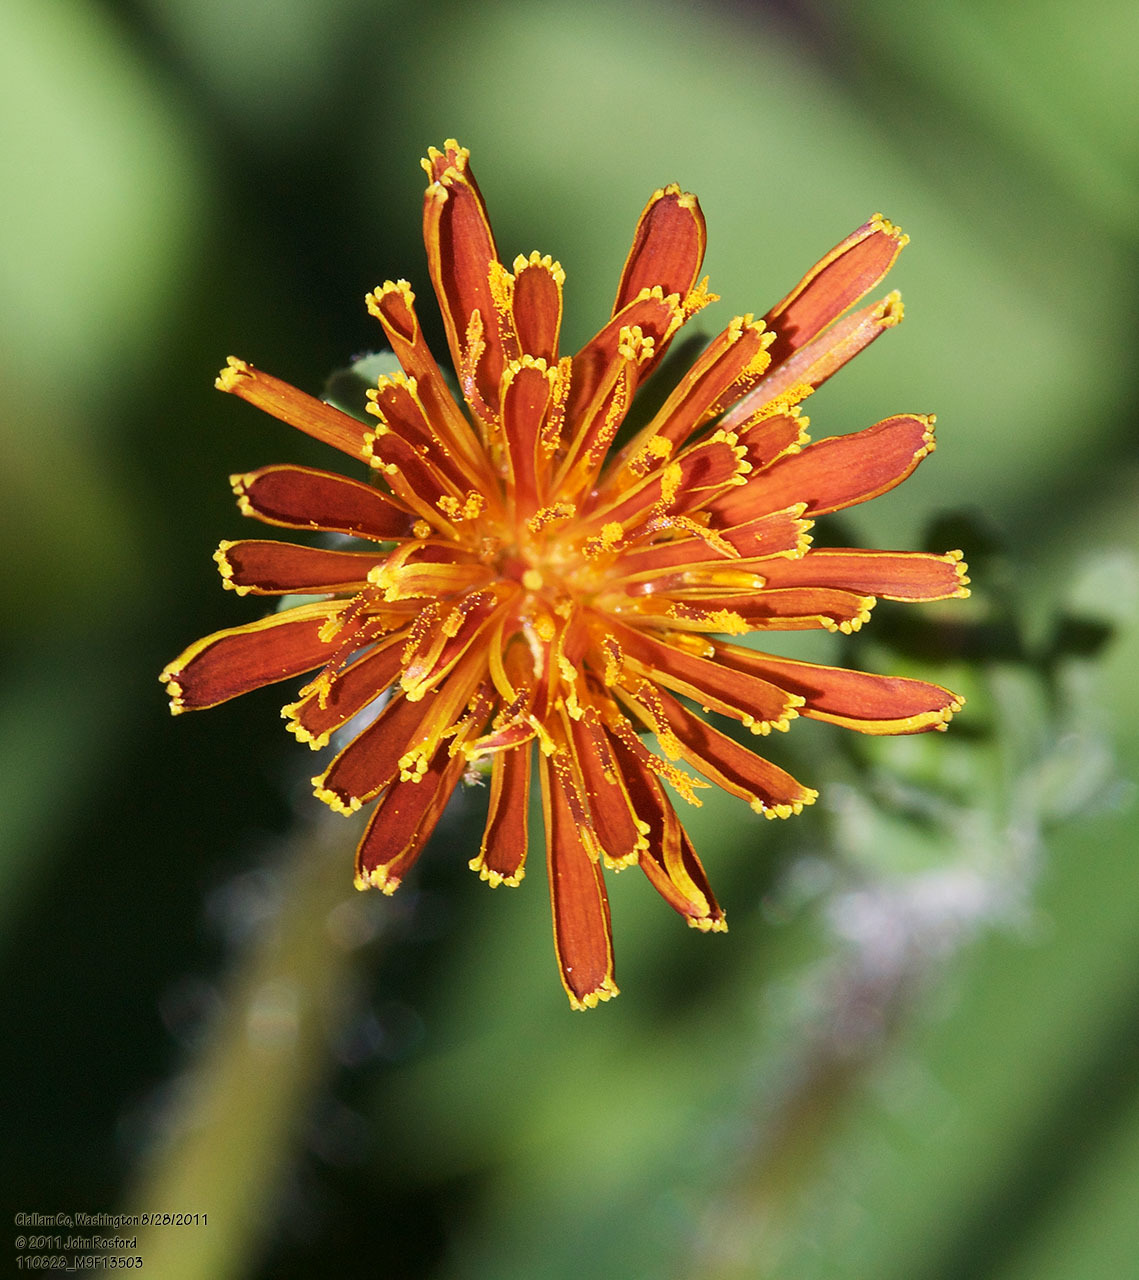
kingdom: Plantae
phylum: Tracheophyta
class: Magnoliopsida
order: Asterales
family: Asteraceae
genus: Agoseris
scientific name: Agoseris aurantiaca
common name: Mountain agoseris
